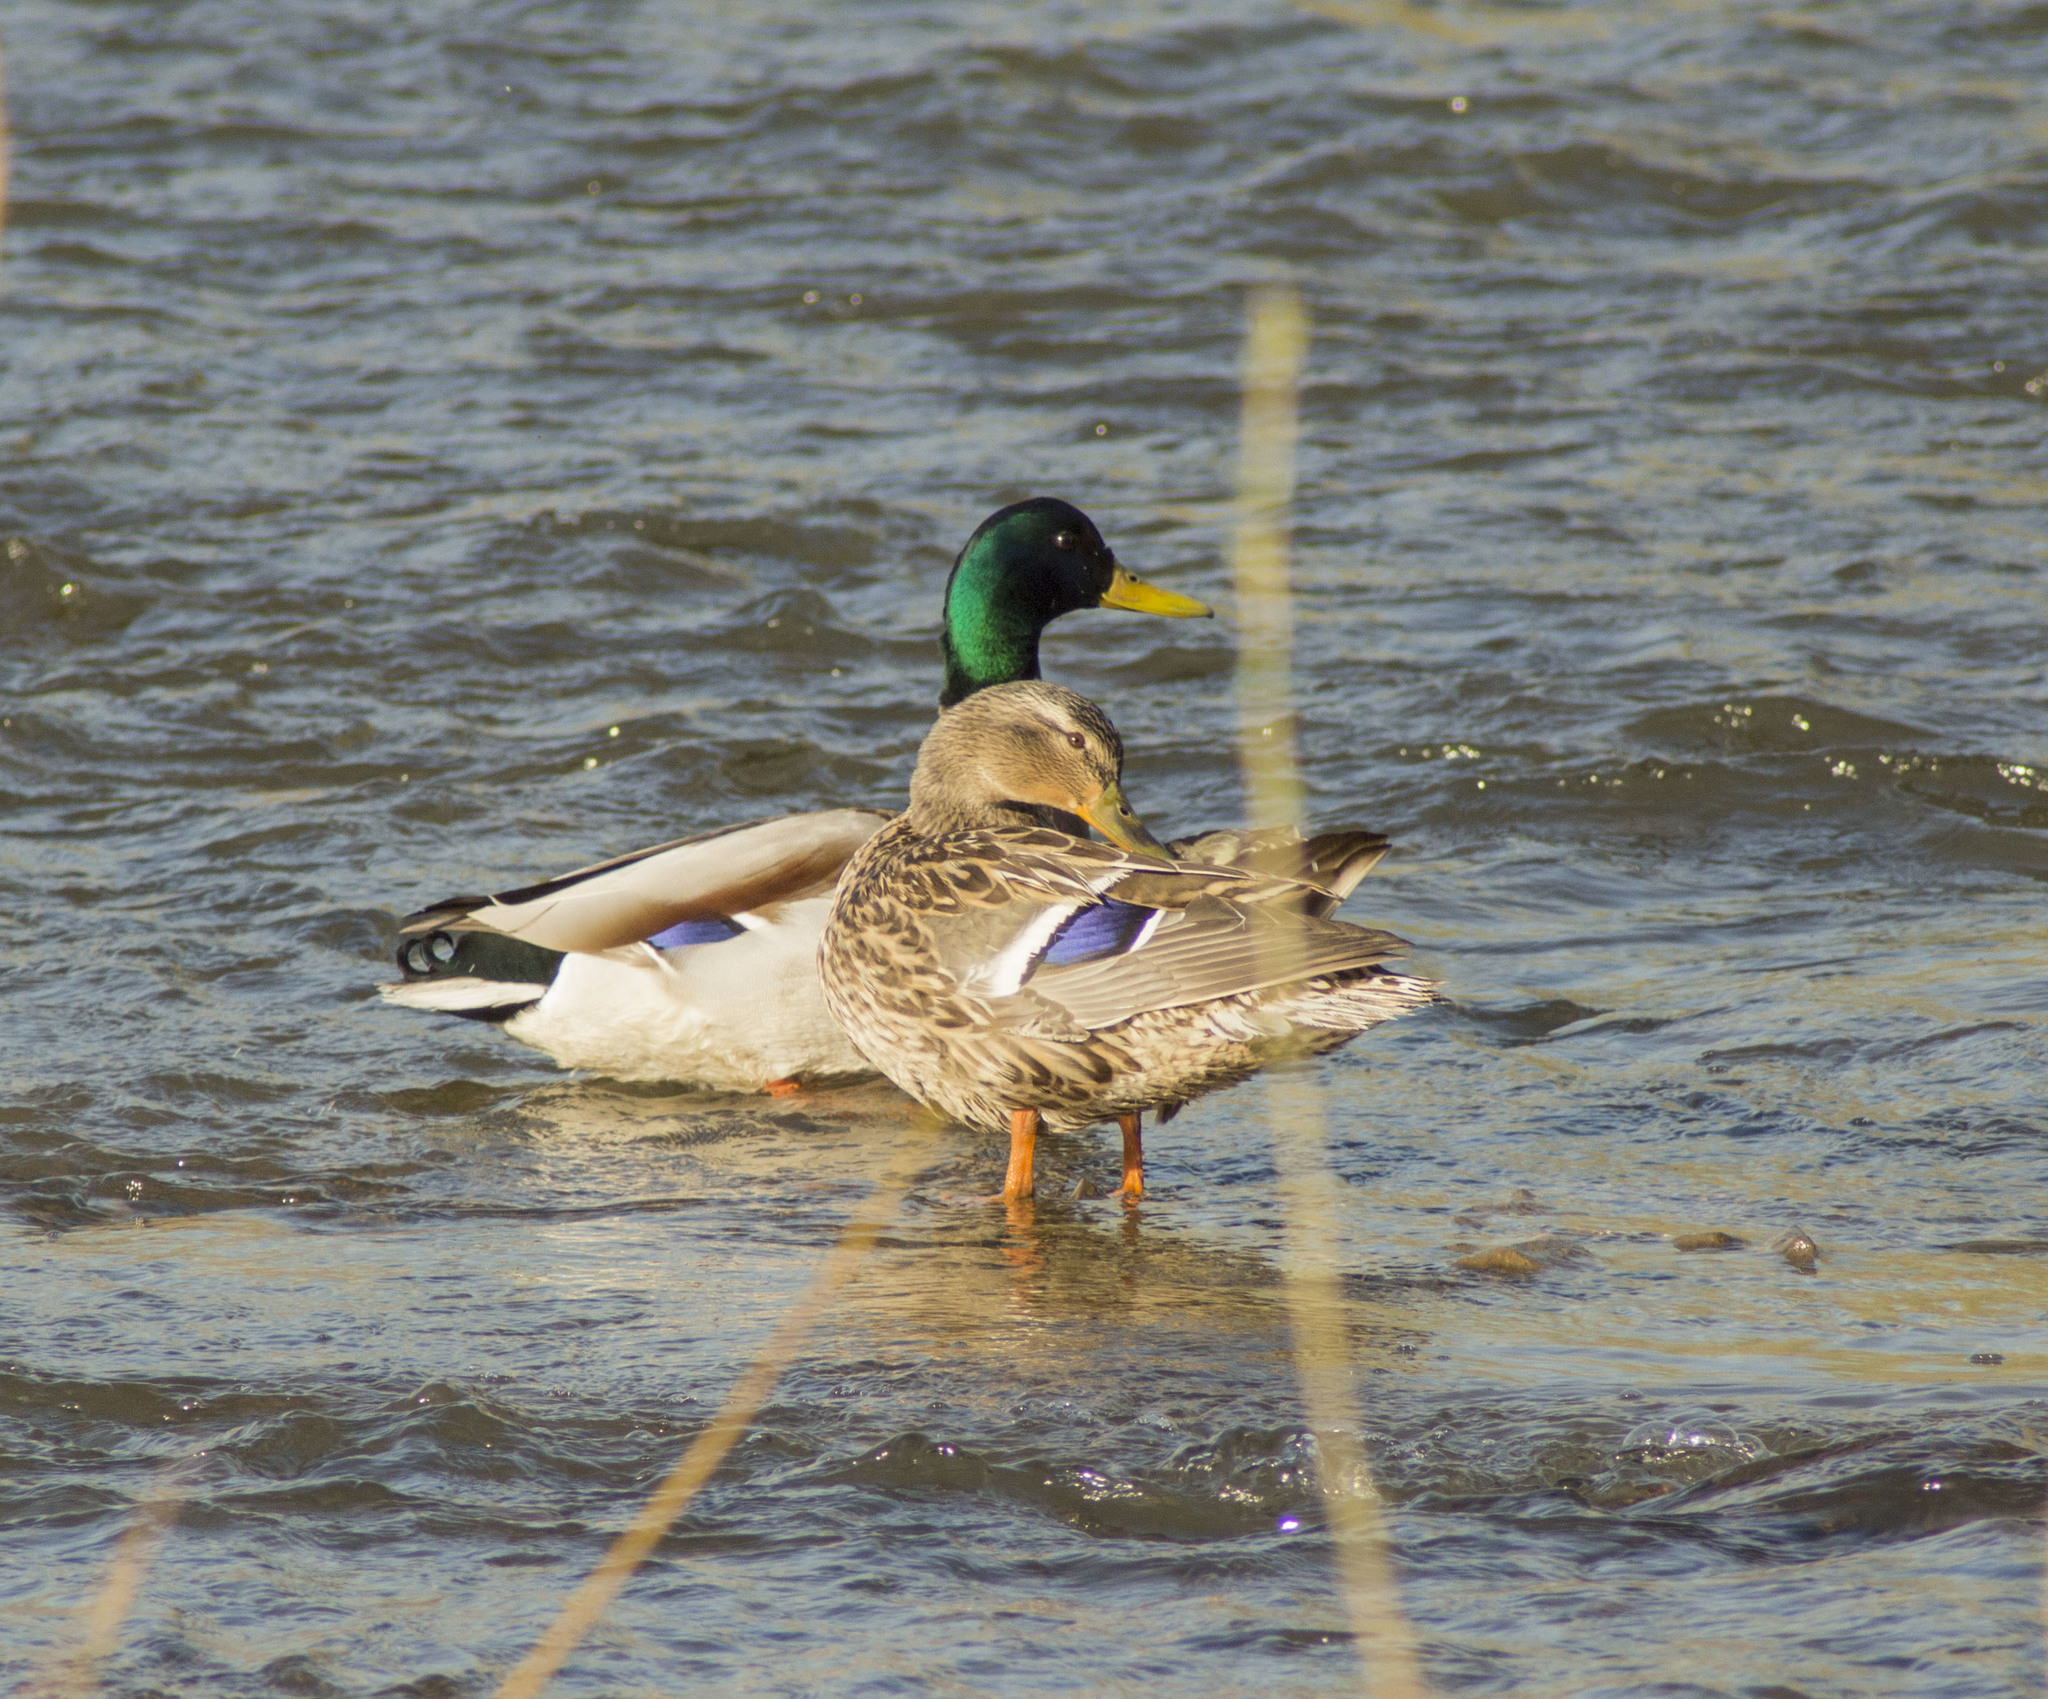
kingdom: Animalia
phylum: Chordata
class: Aves
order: Anseriformes
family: Anatidae
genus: Anas
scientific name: Anas platyrhynchos
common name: Mallard
